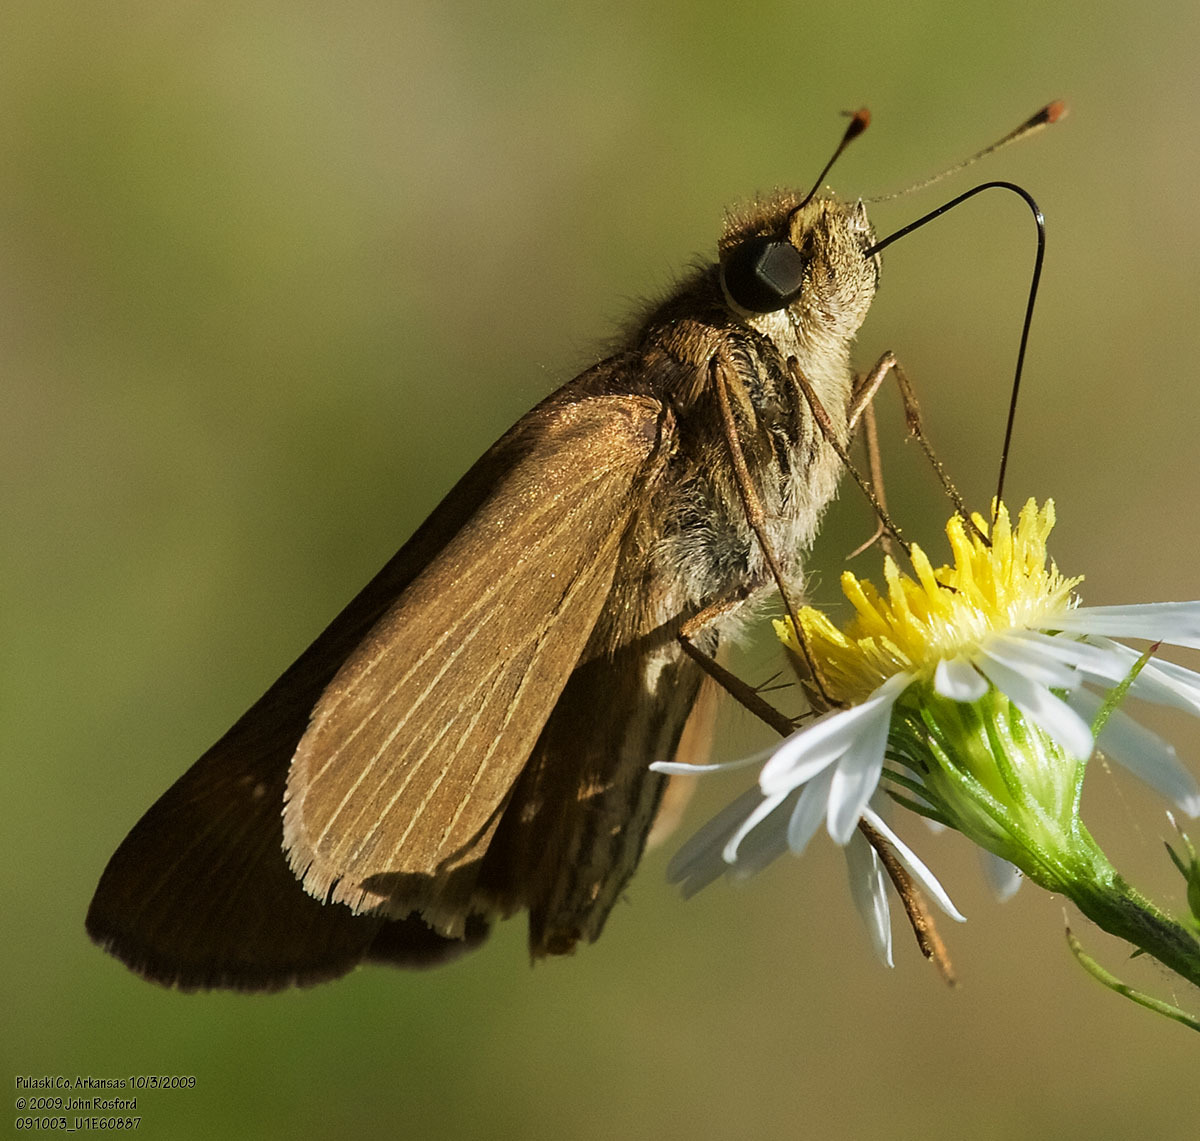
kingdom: Animalia
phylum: Arthropoda
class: Insecta
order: Lepidoptera
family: Hesperiidae
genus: Panoquina
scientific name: Panoquina ocola
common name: Ocola skipper
